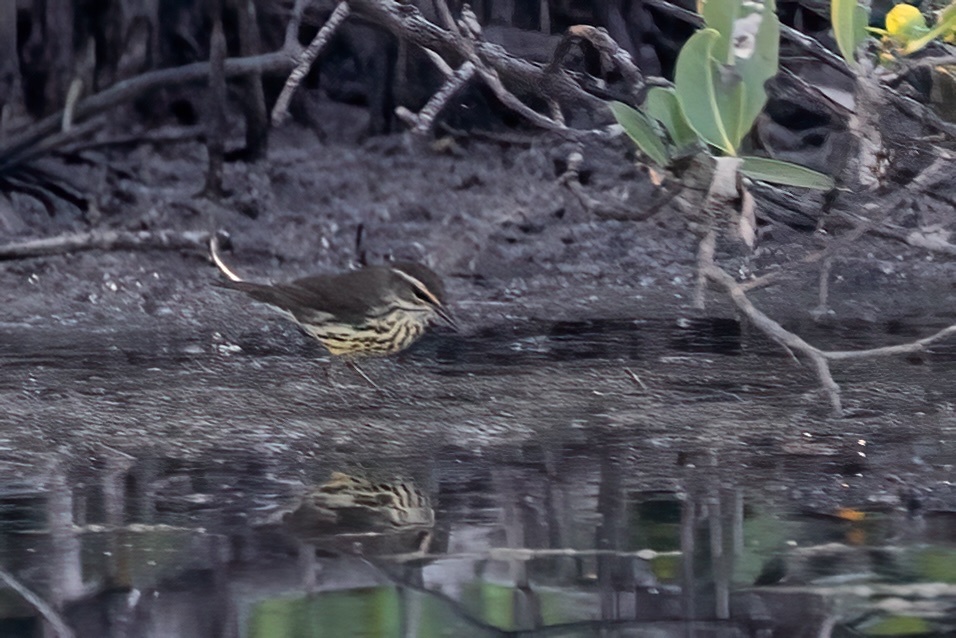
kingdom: Animalia
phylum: Chordata
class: Aves
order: Passeriformes
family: Parulidae
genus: Parkesia
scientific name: Parkesia noveboracensis
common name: Northern waterthrush
